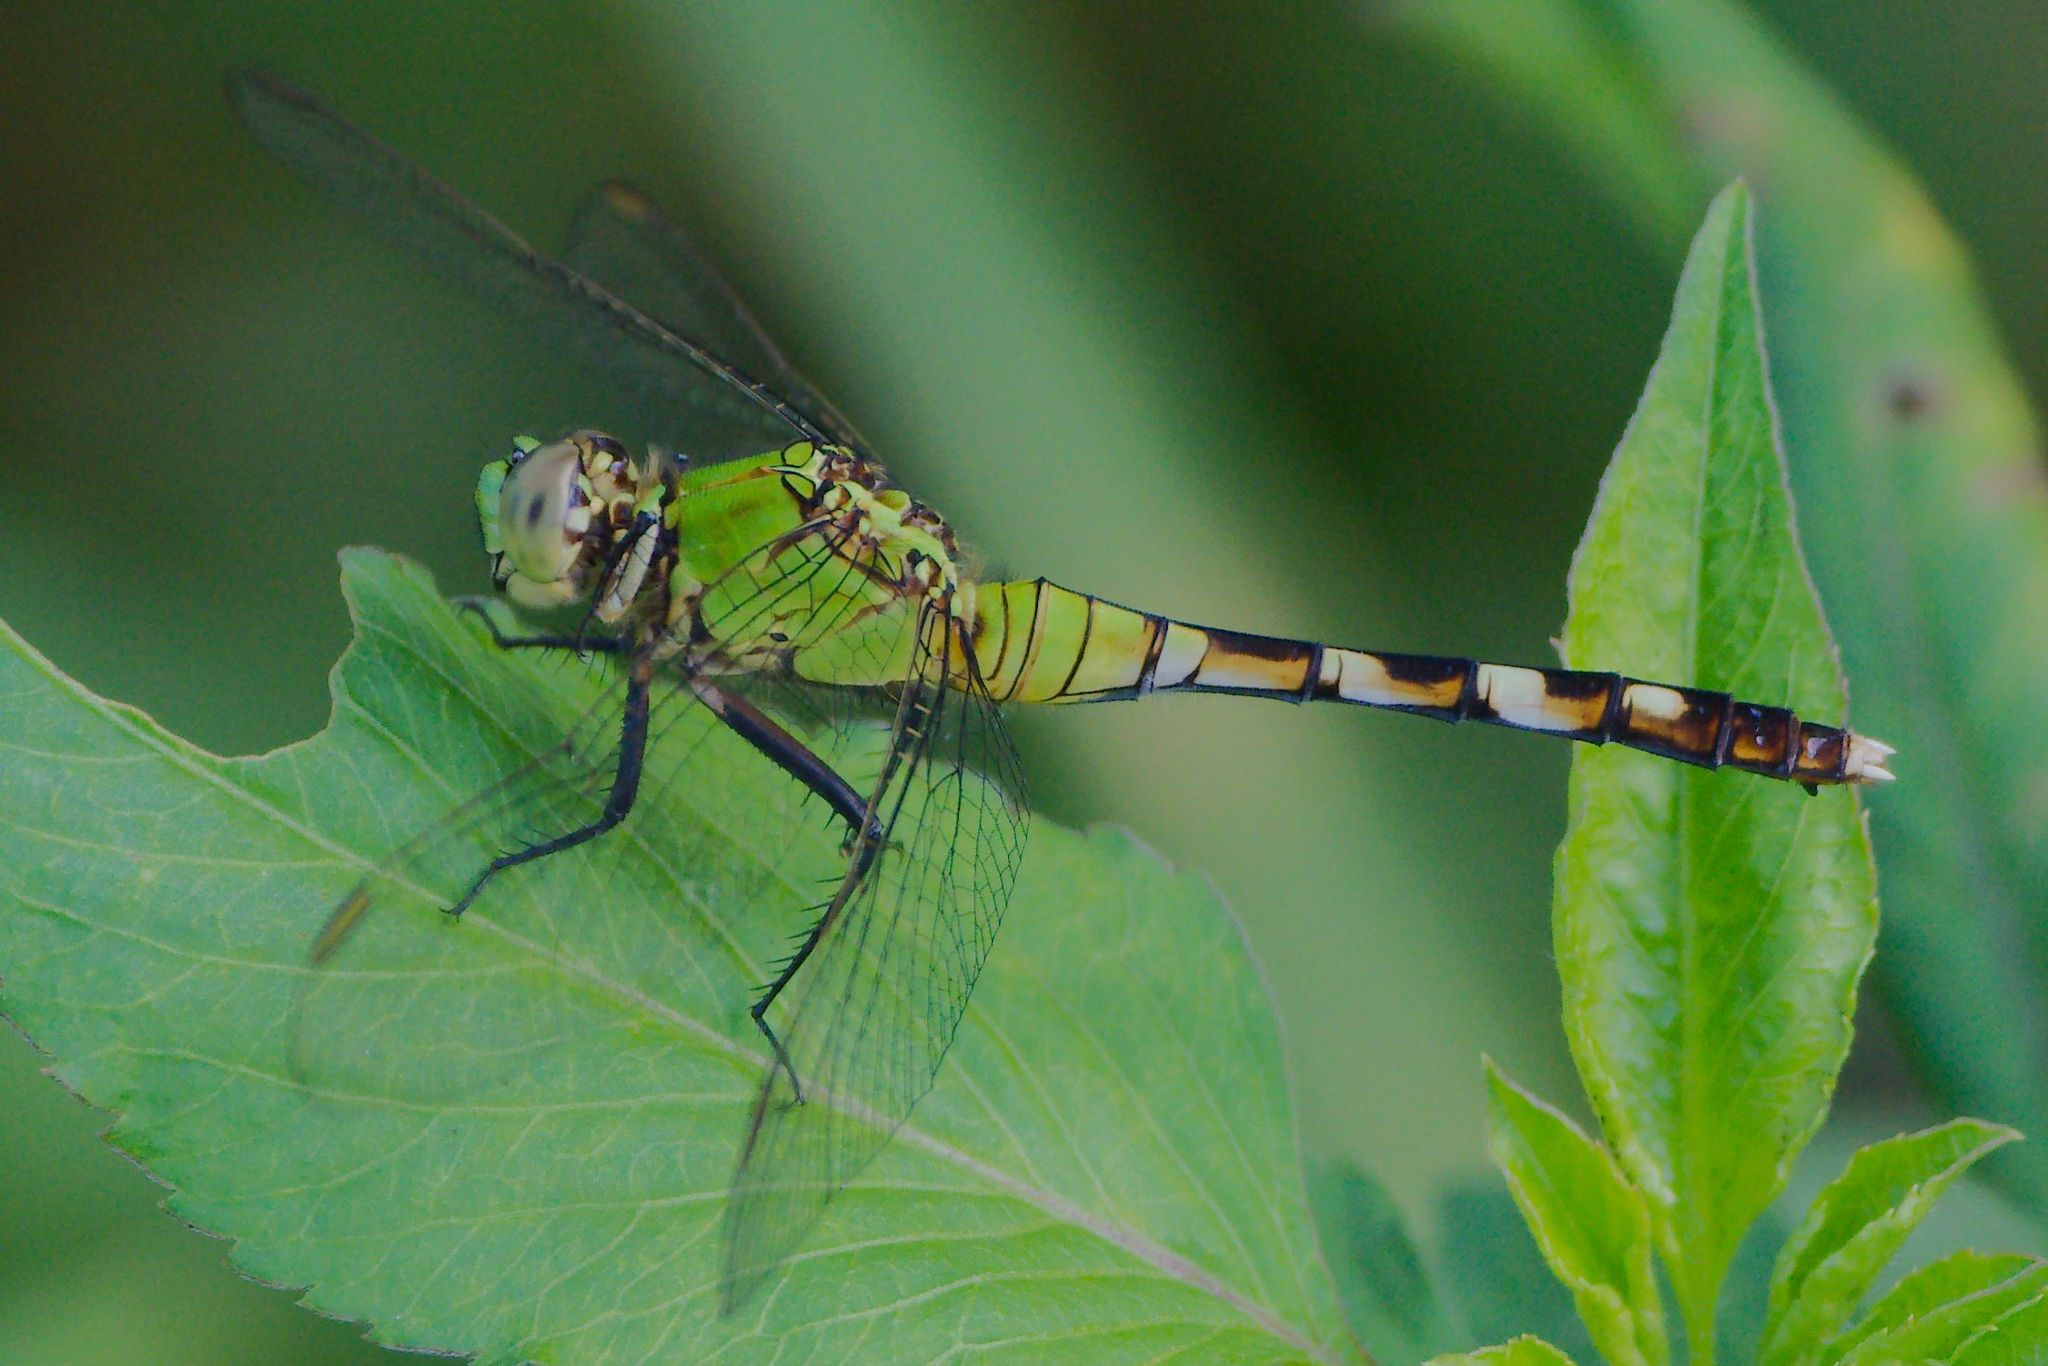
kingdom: Animalia
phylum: Arthropoda
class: Insecta
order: Odonata
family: Libellulidae
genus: Erythemis
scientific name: Erythemis simplicicollis
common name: Eastern pondhawk
